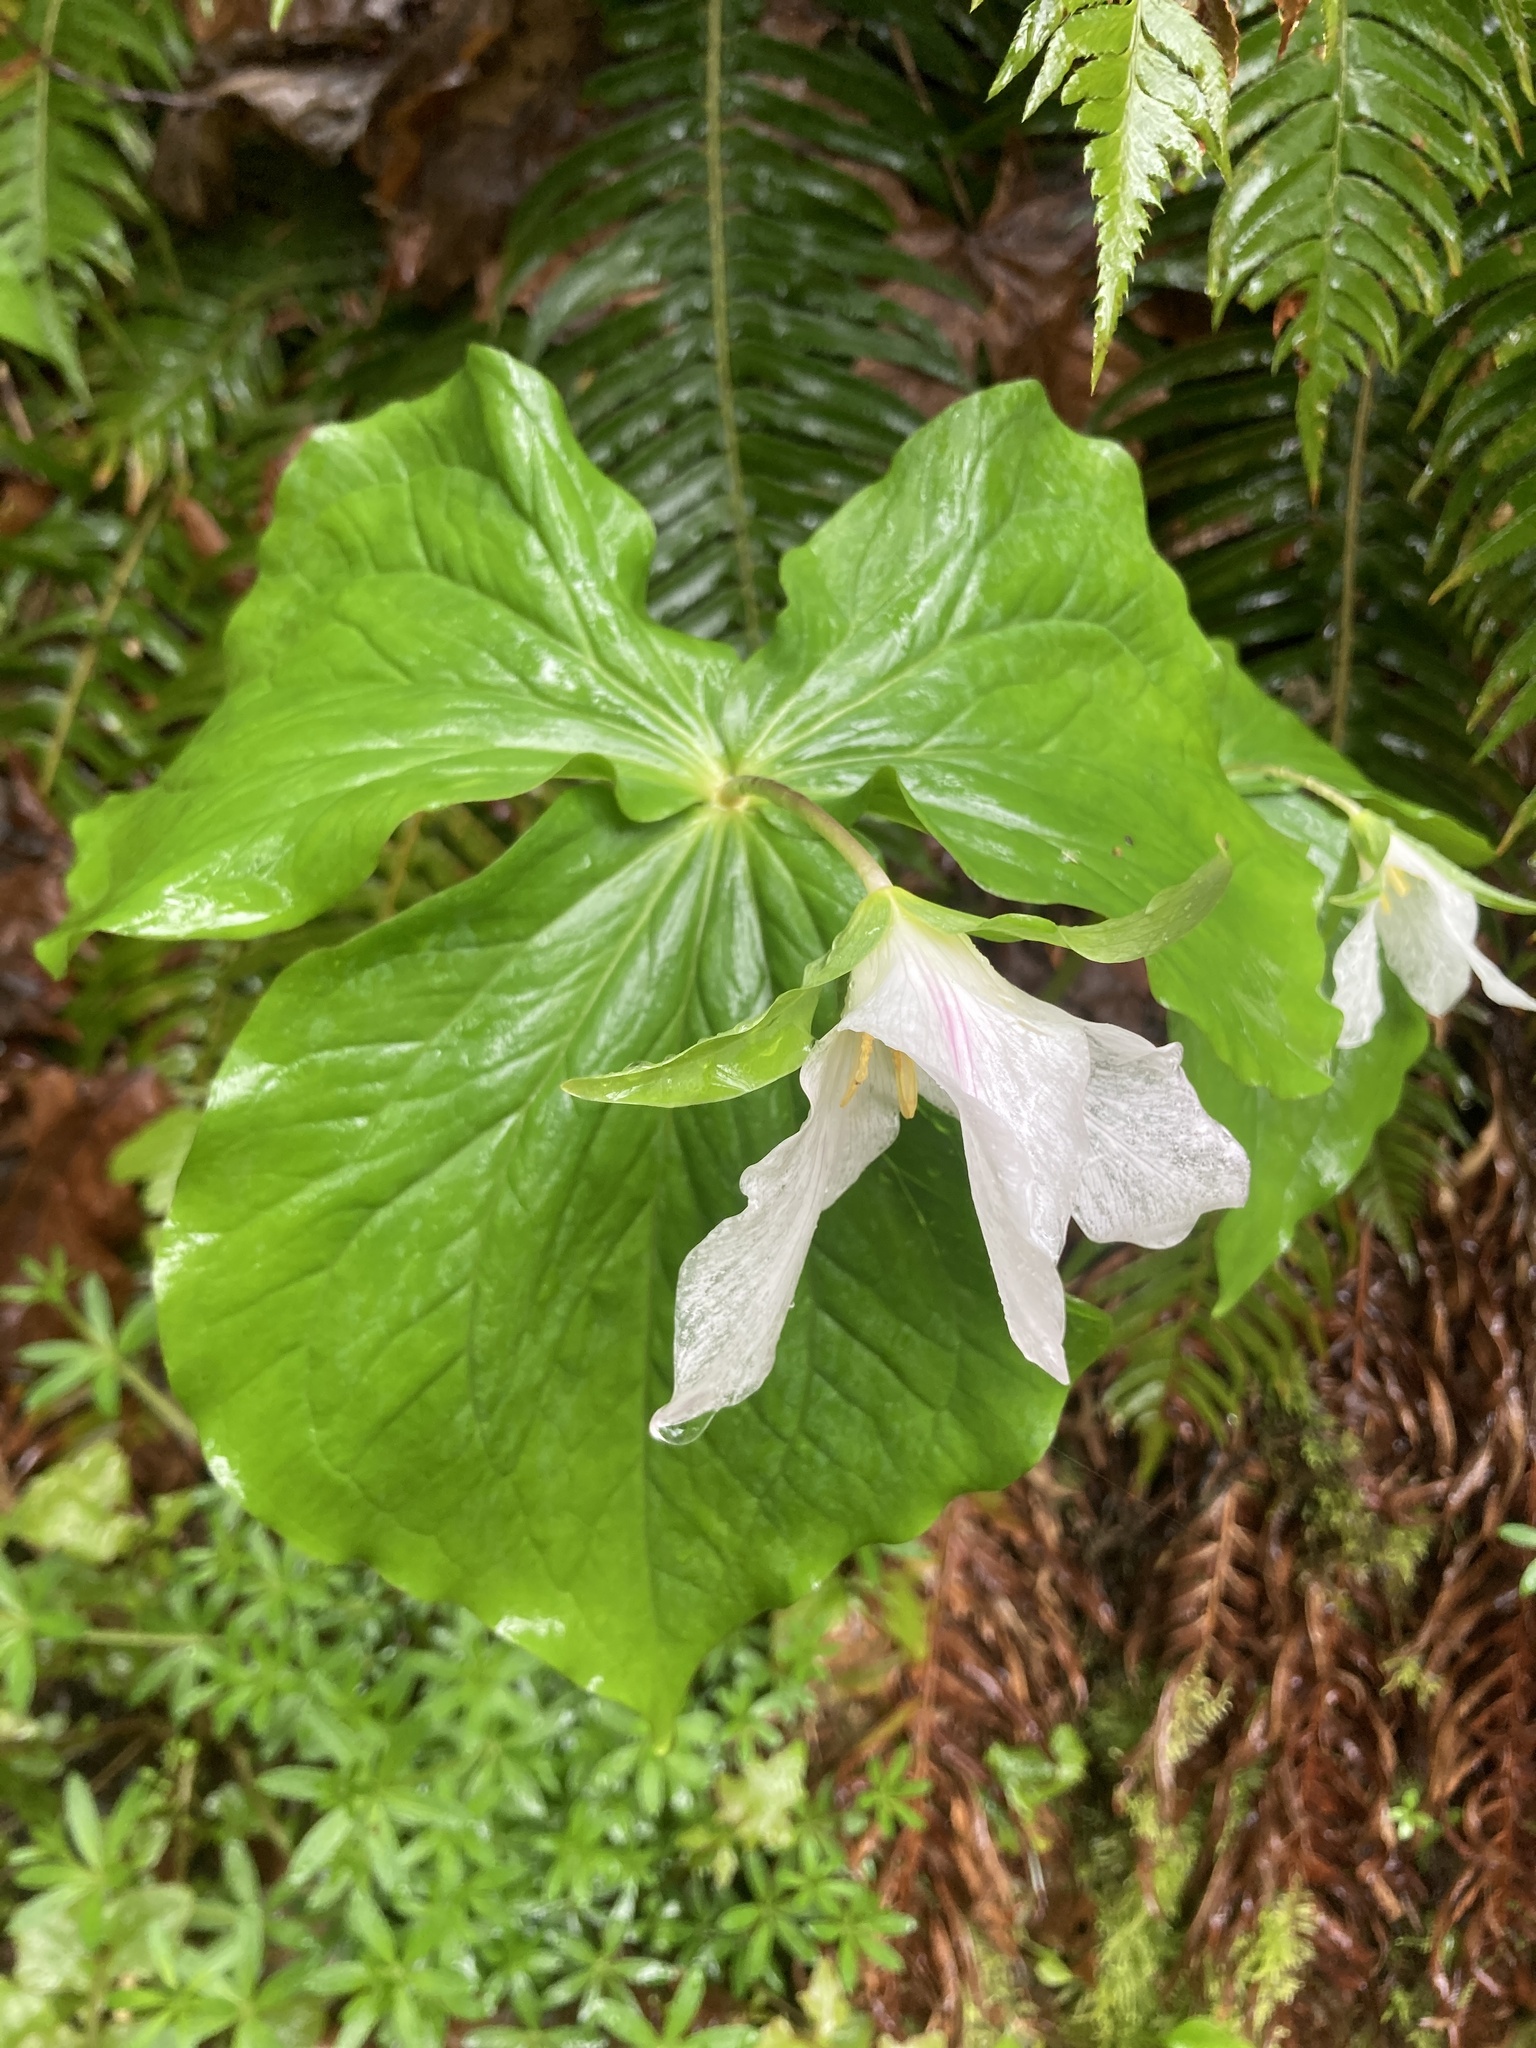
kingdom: Plantae
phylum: Tracheophyta
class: Liliopsida
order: Liliales
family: Melanthiaceae
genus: Trillium
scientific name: Trillium ovatum
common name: Pacific trillium
